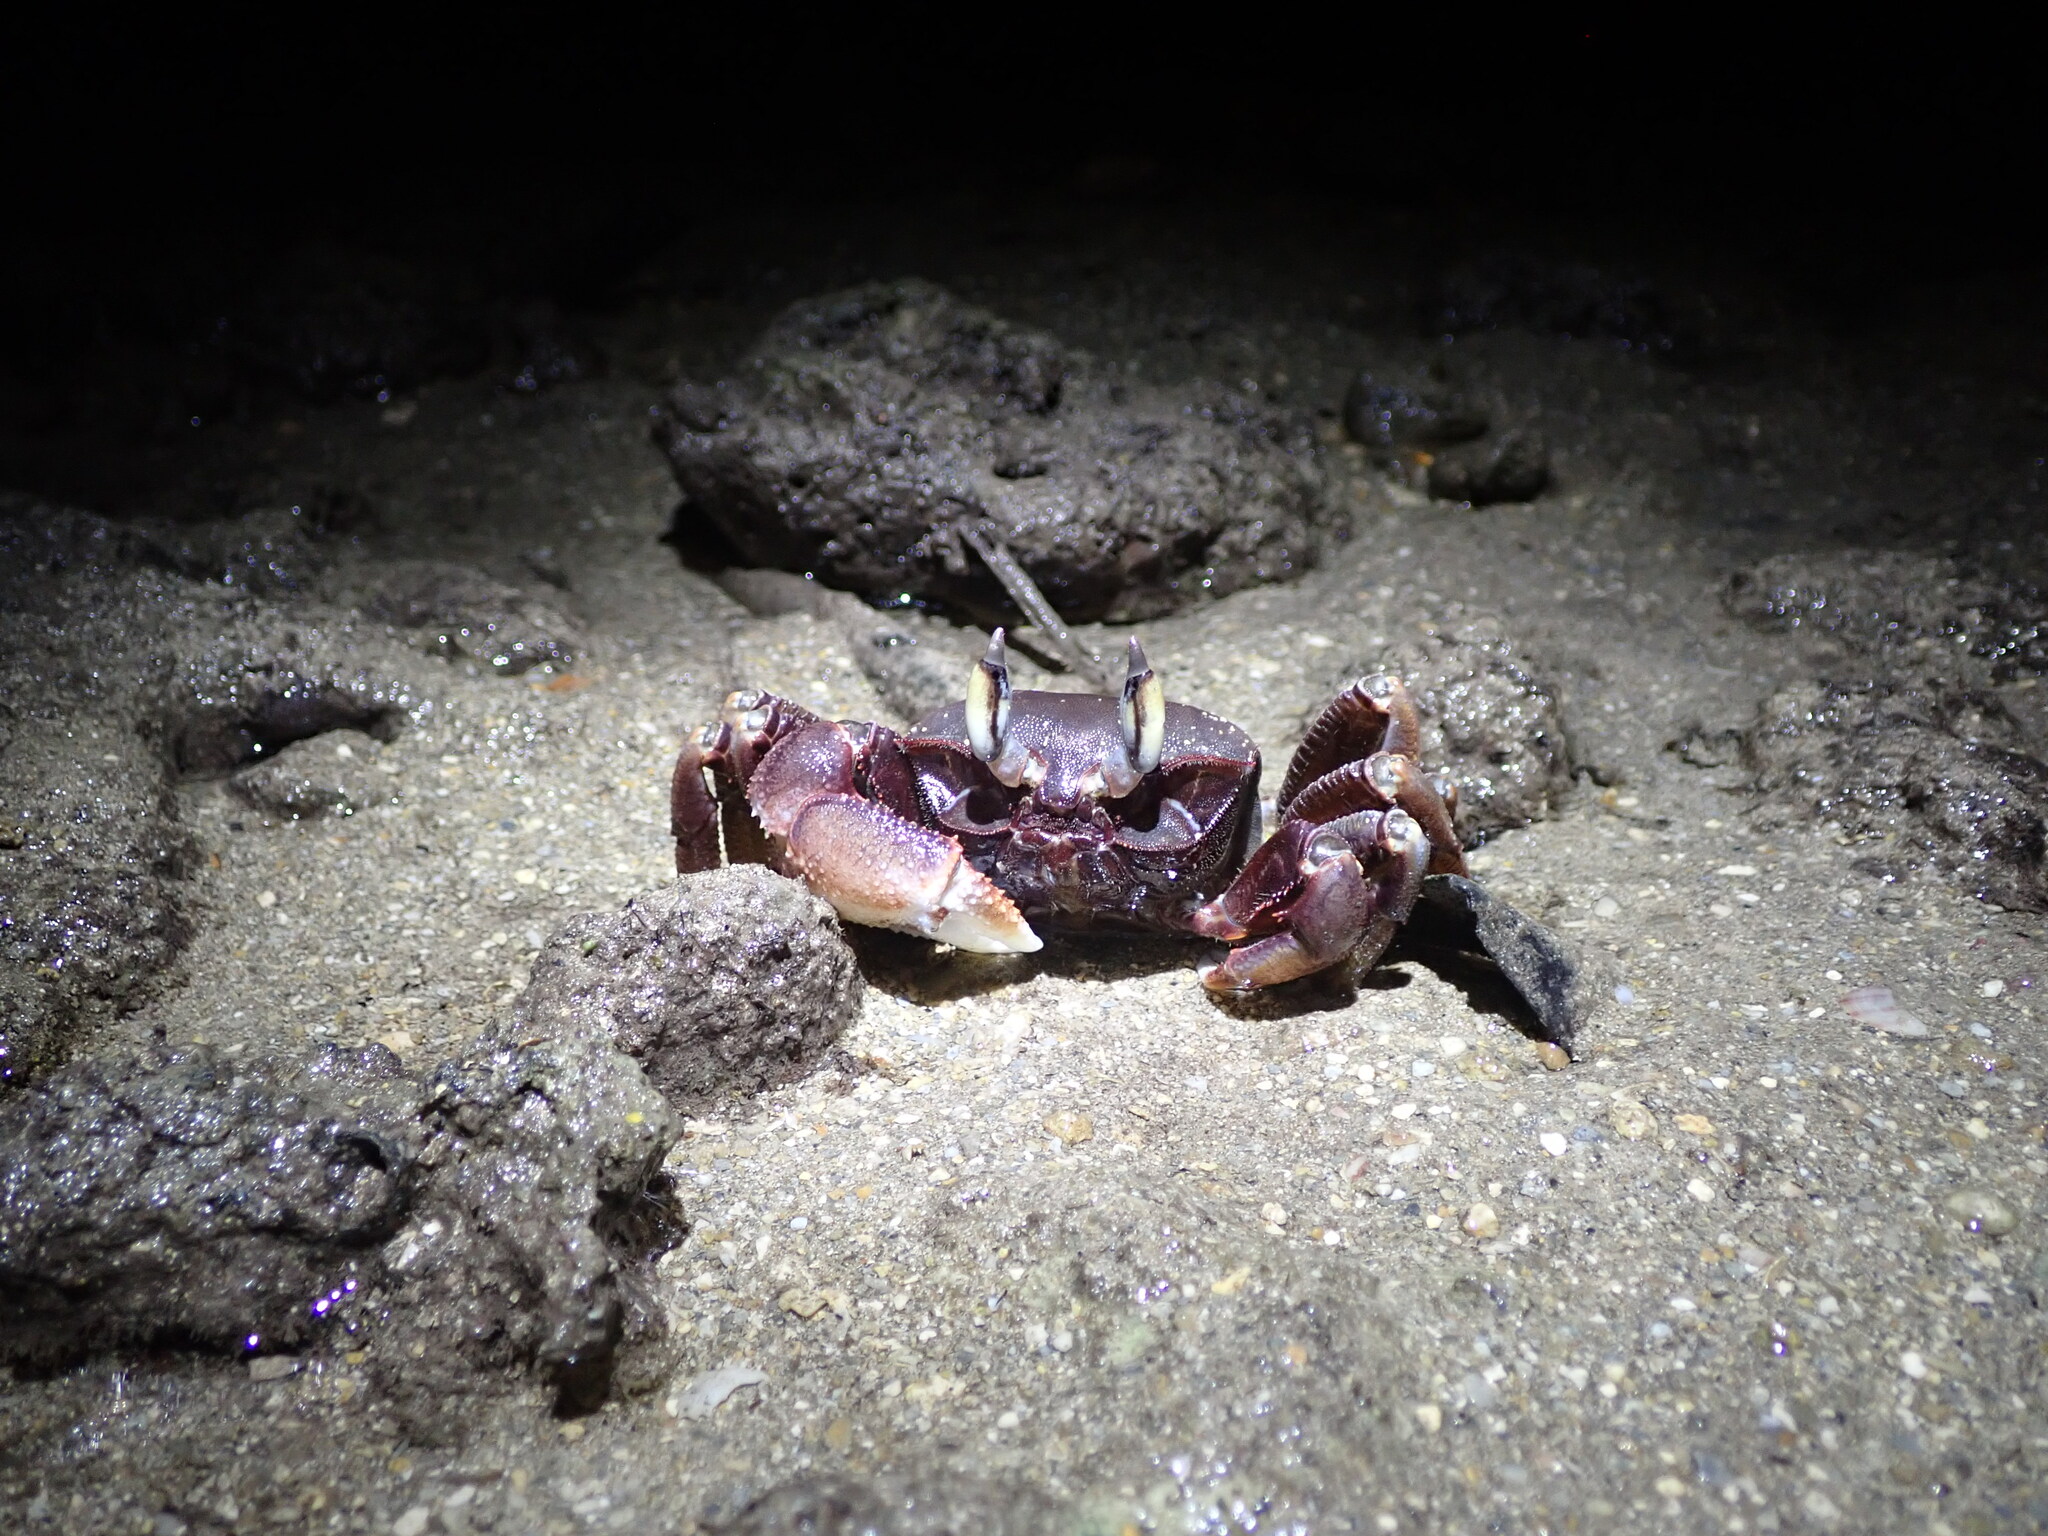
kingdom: Animalia
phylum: Arthropoda
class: Malacostraca
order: Decapoda
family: Ocypodidae
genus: Ocypode
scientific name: Ocypode ceratophthalmus
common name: Indo-pacific ghost crab
